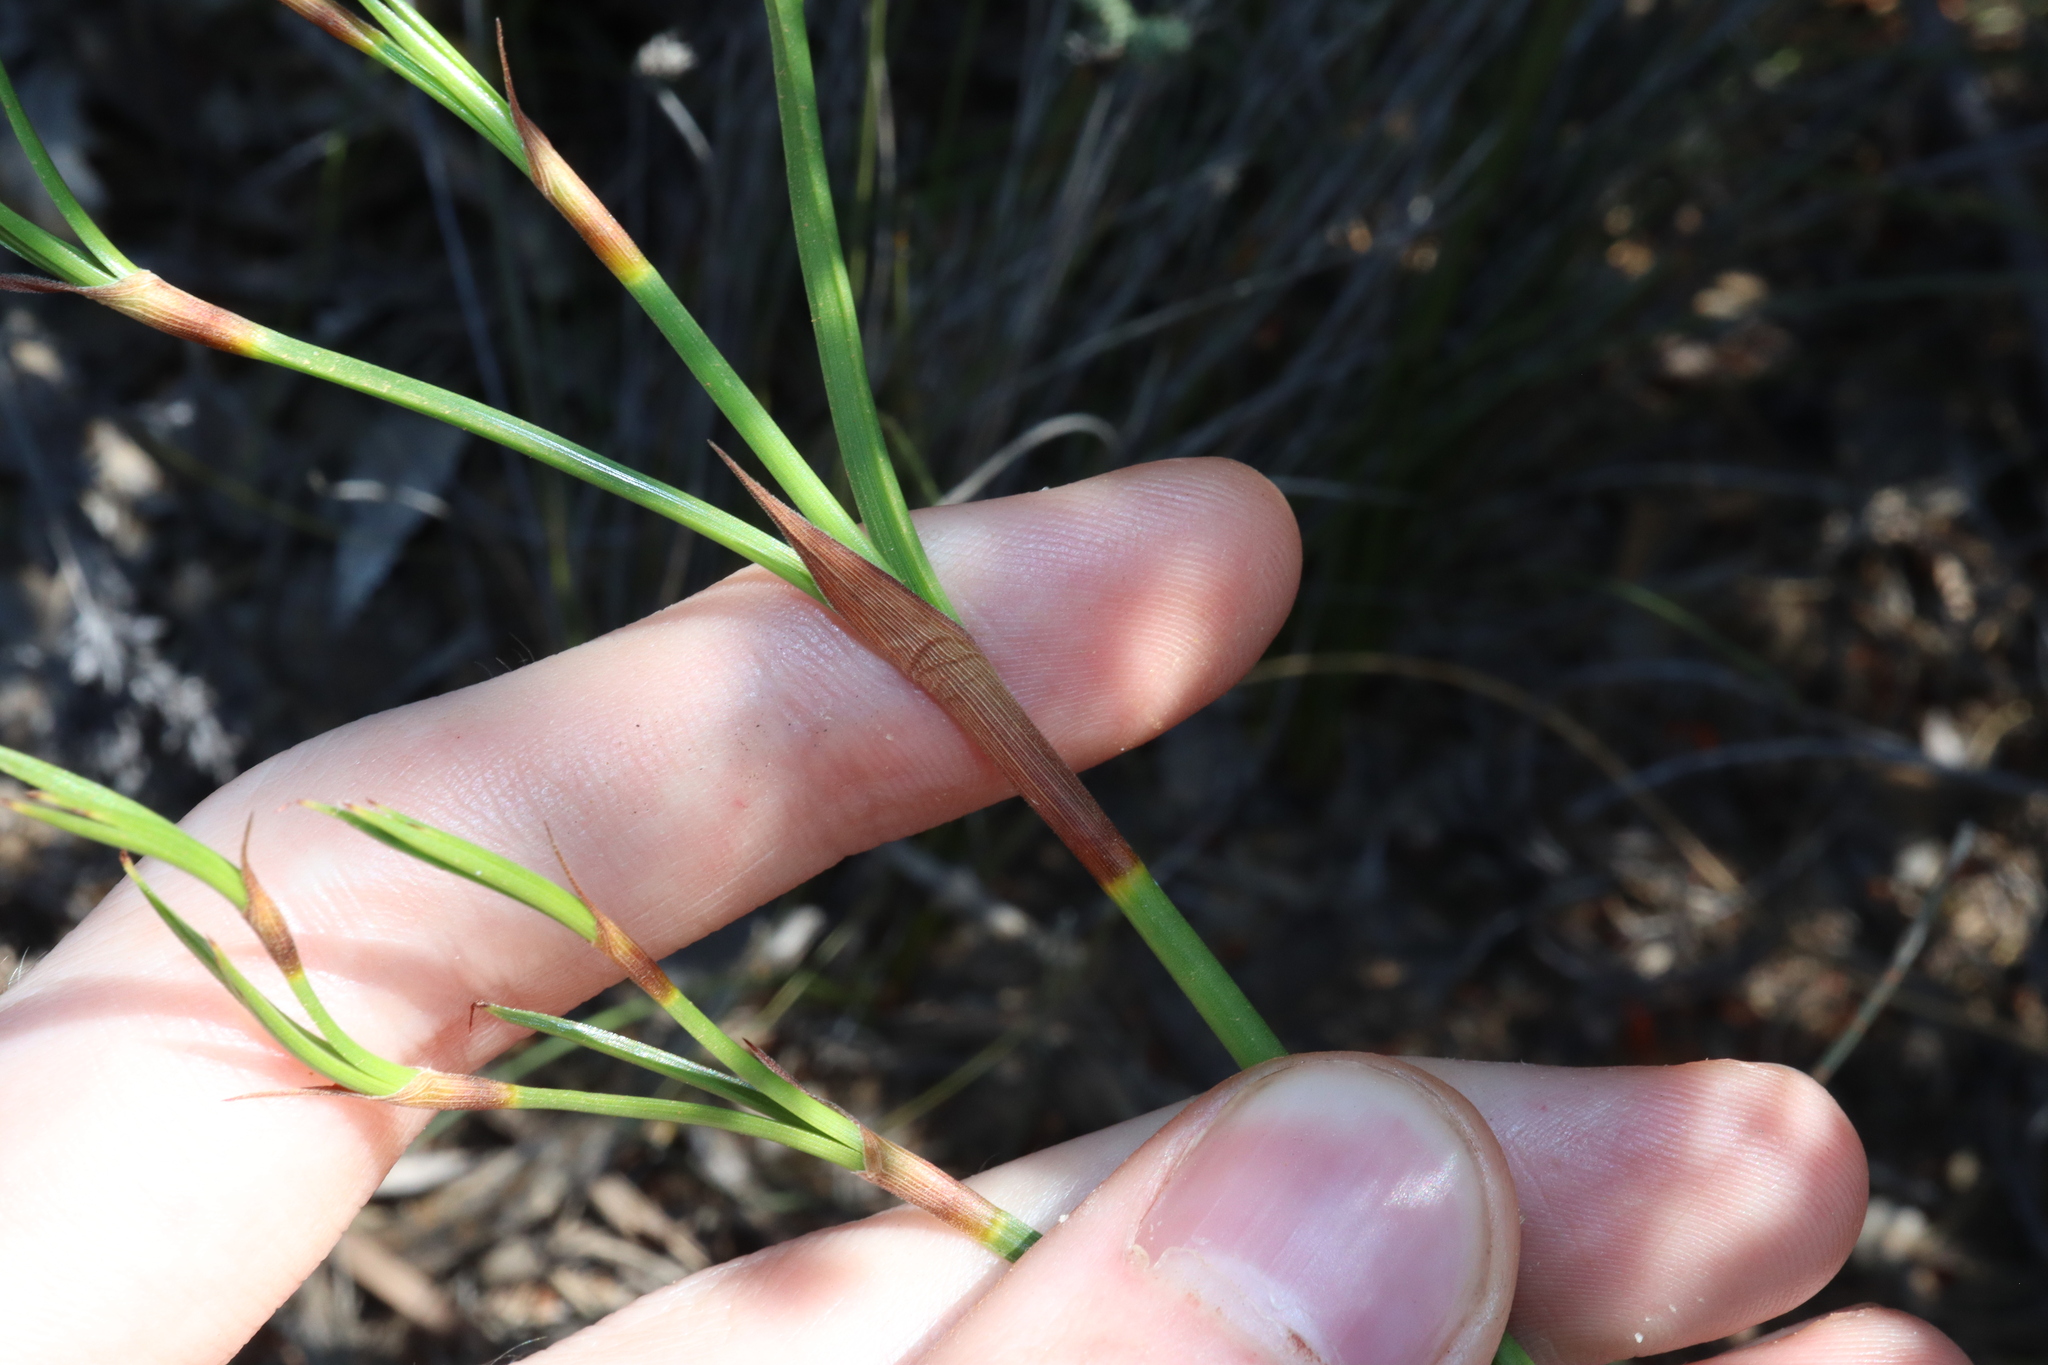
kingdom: Plantae
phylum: Tracheophyta
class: Liliopsida
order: Poales
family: Cyperaceae
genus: Caustis
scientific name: Caustis dioica
